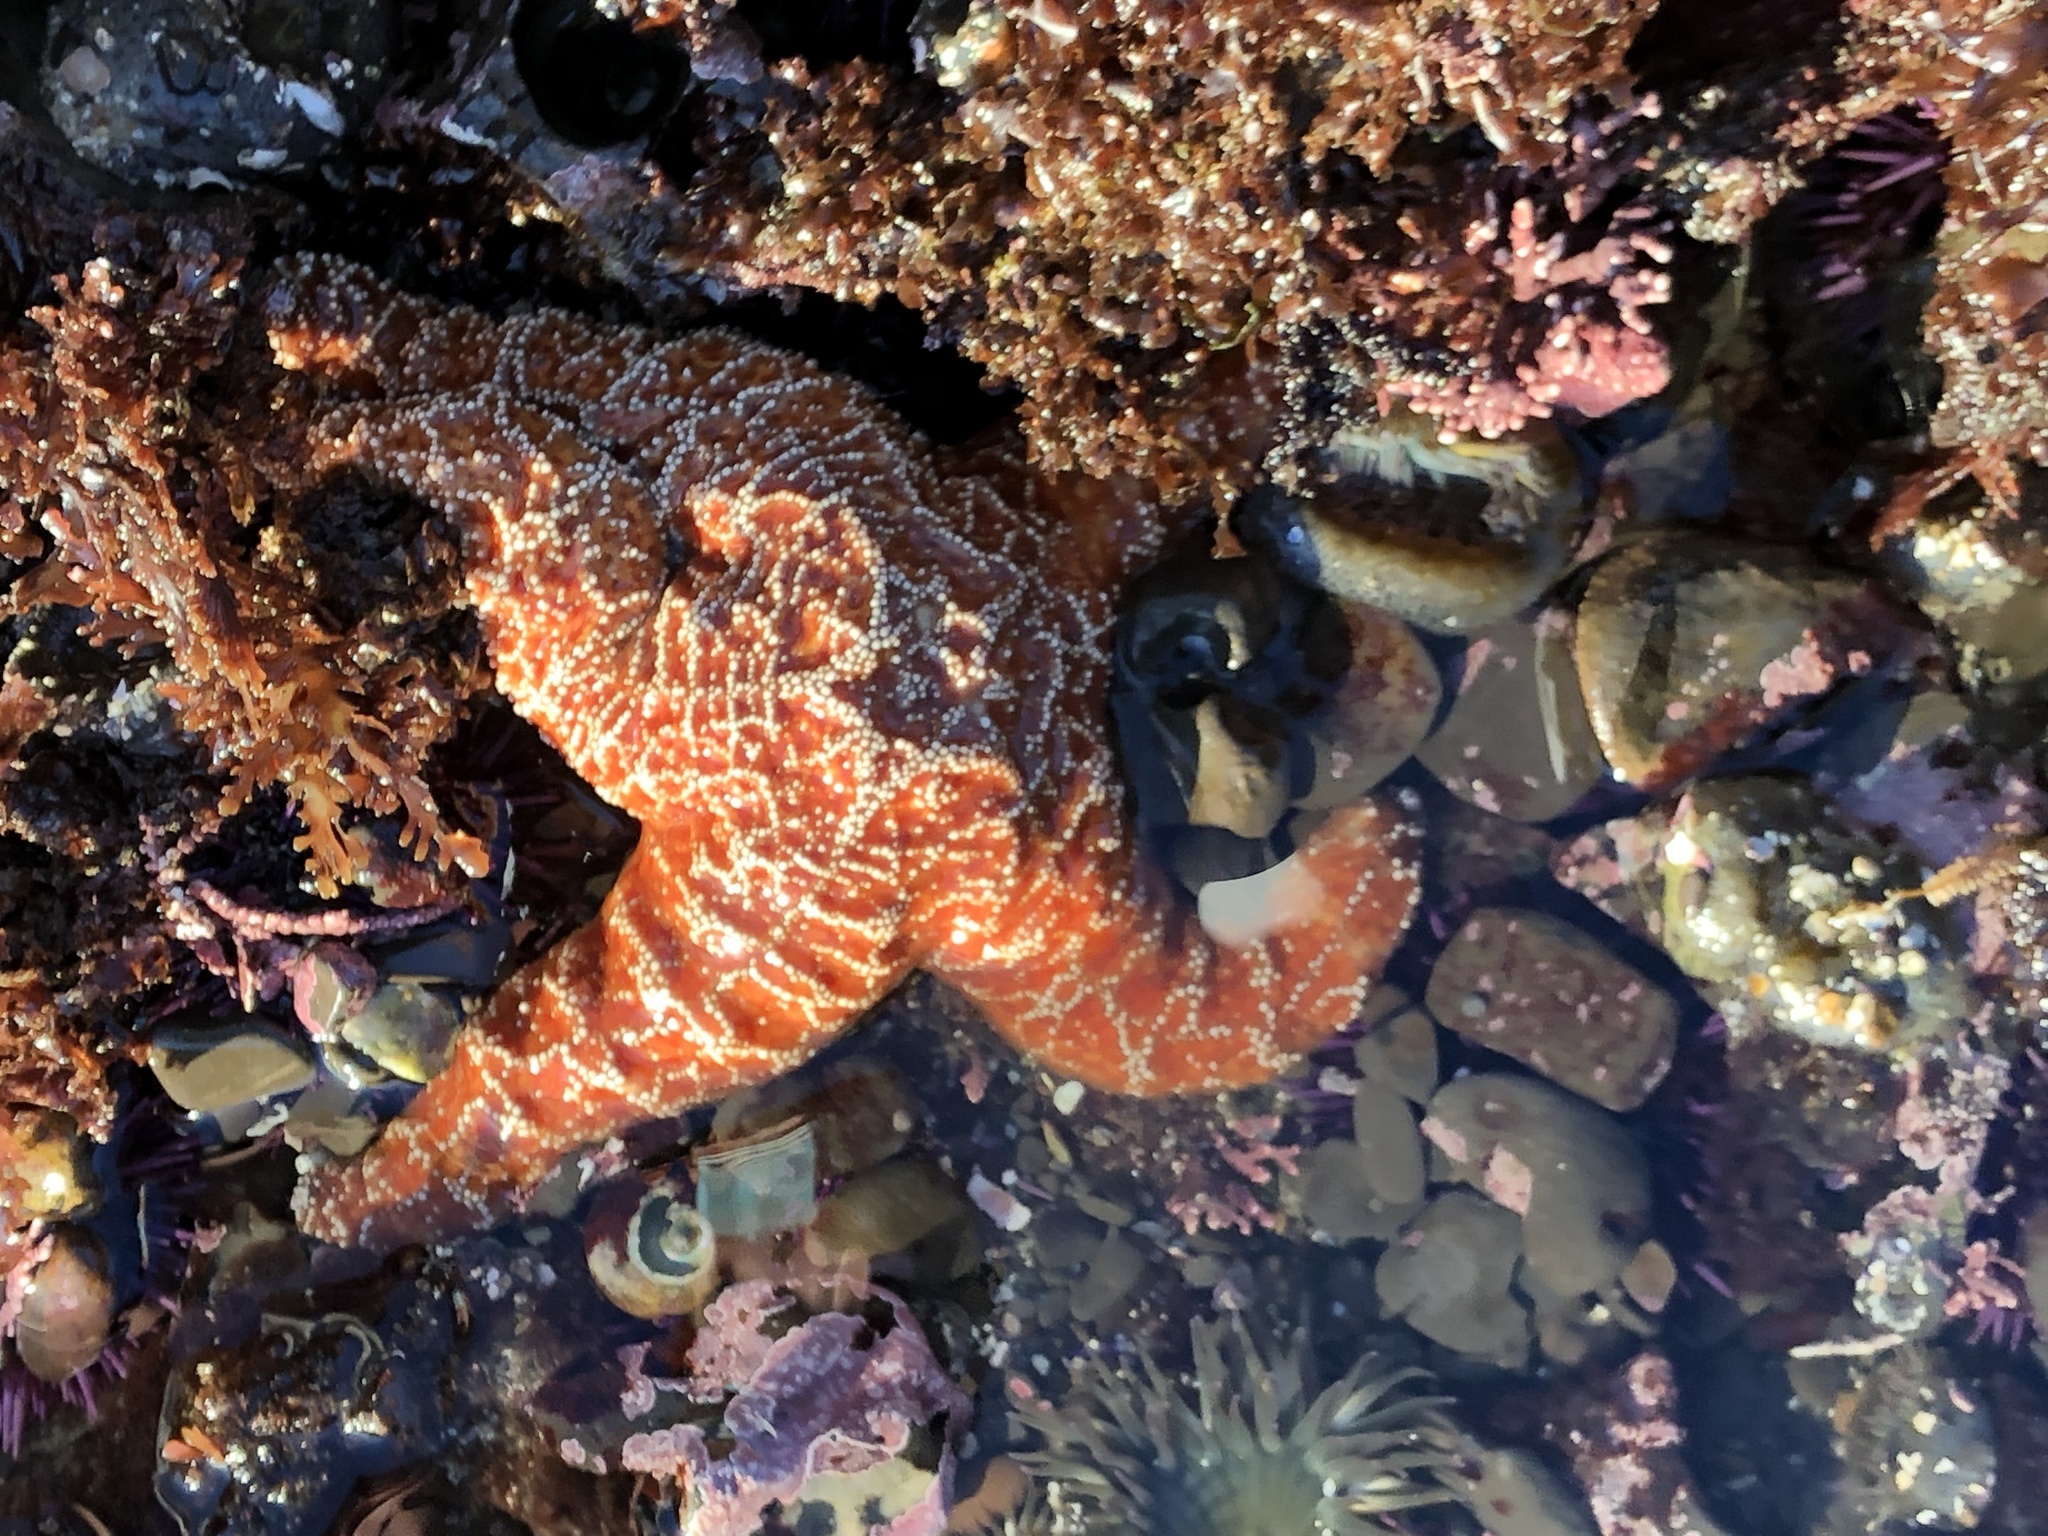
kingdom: Animalia
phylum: Echinodermata
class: Asteroidea
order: Forcipulatida
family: Asteriidae
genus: Pisaster
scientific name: Pisaster ochraceus
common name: Ochre stars
